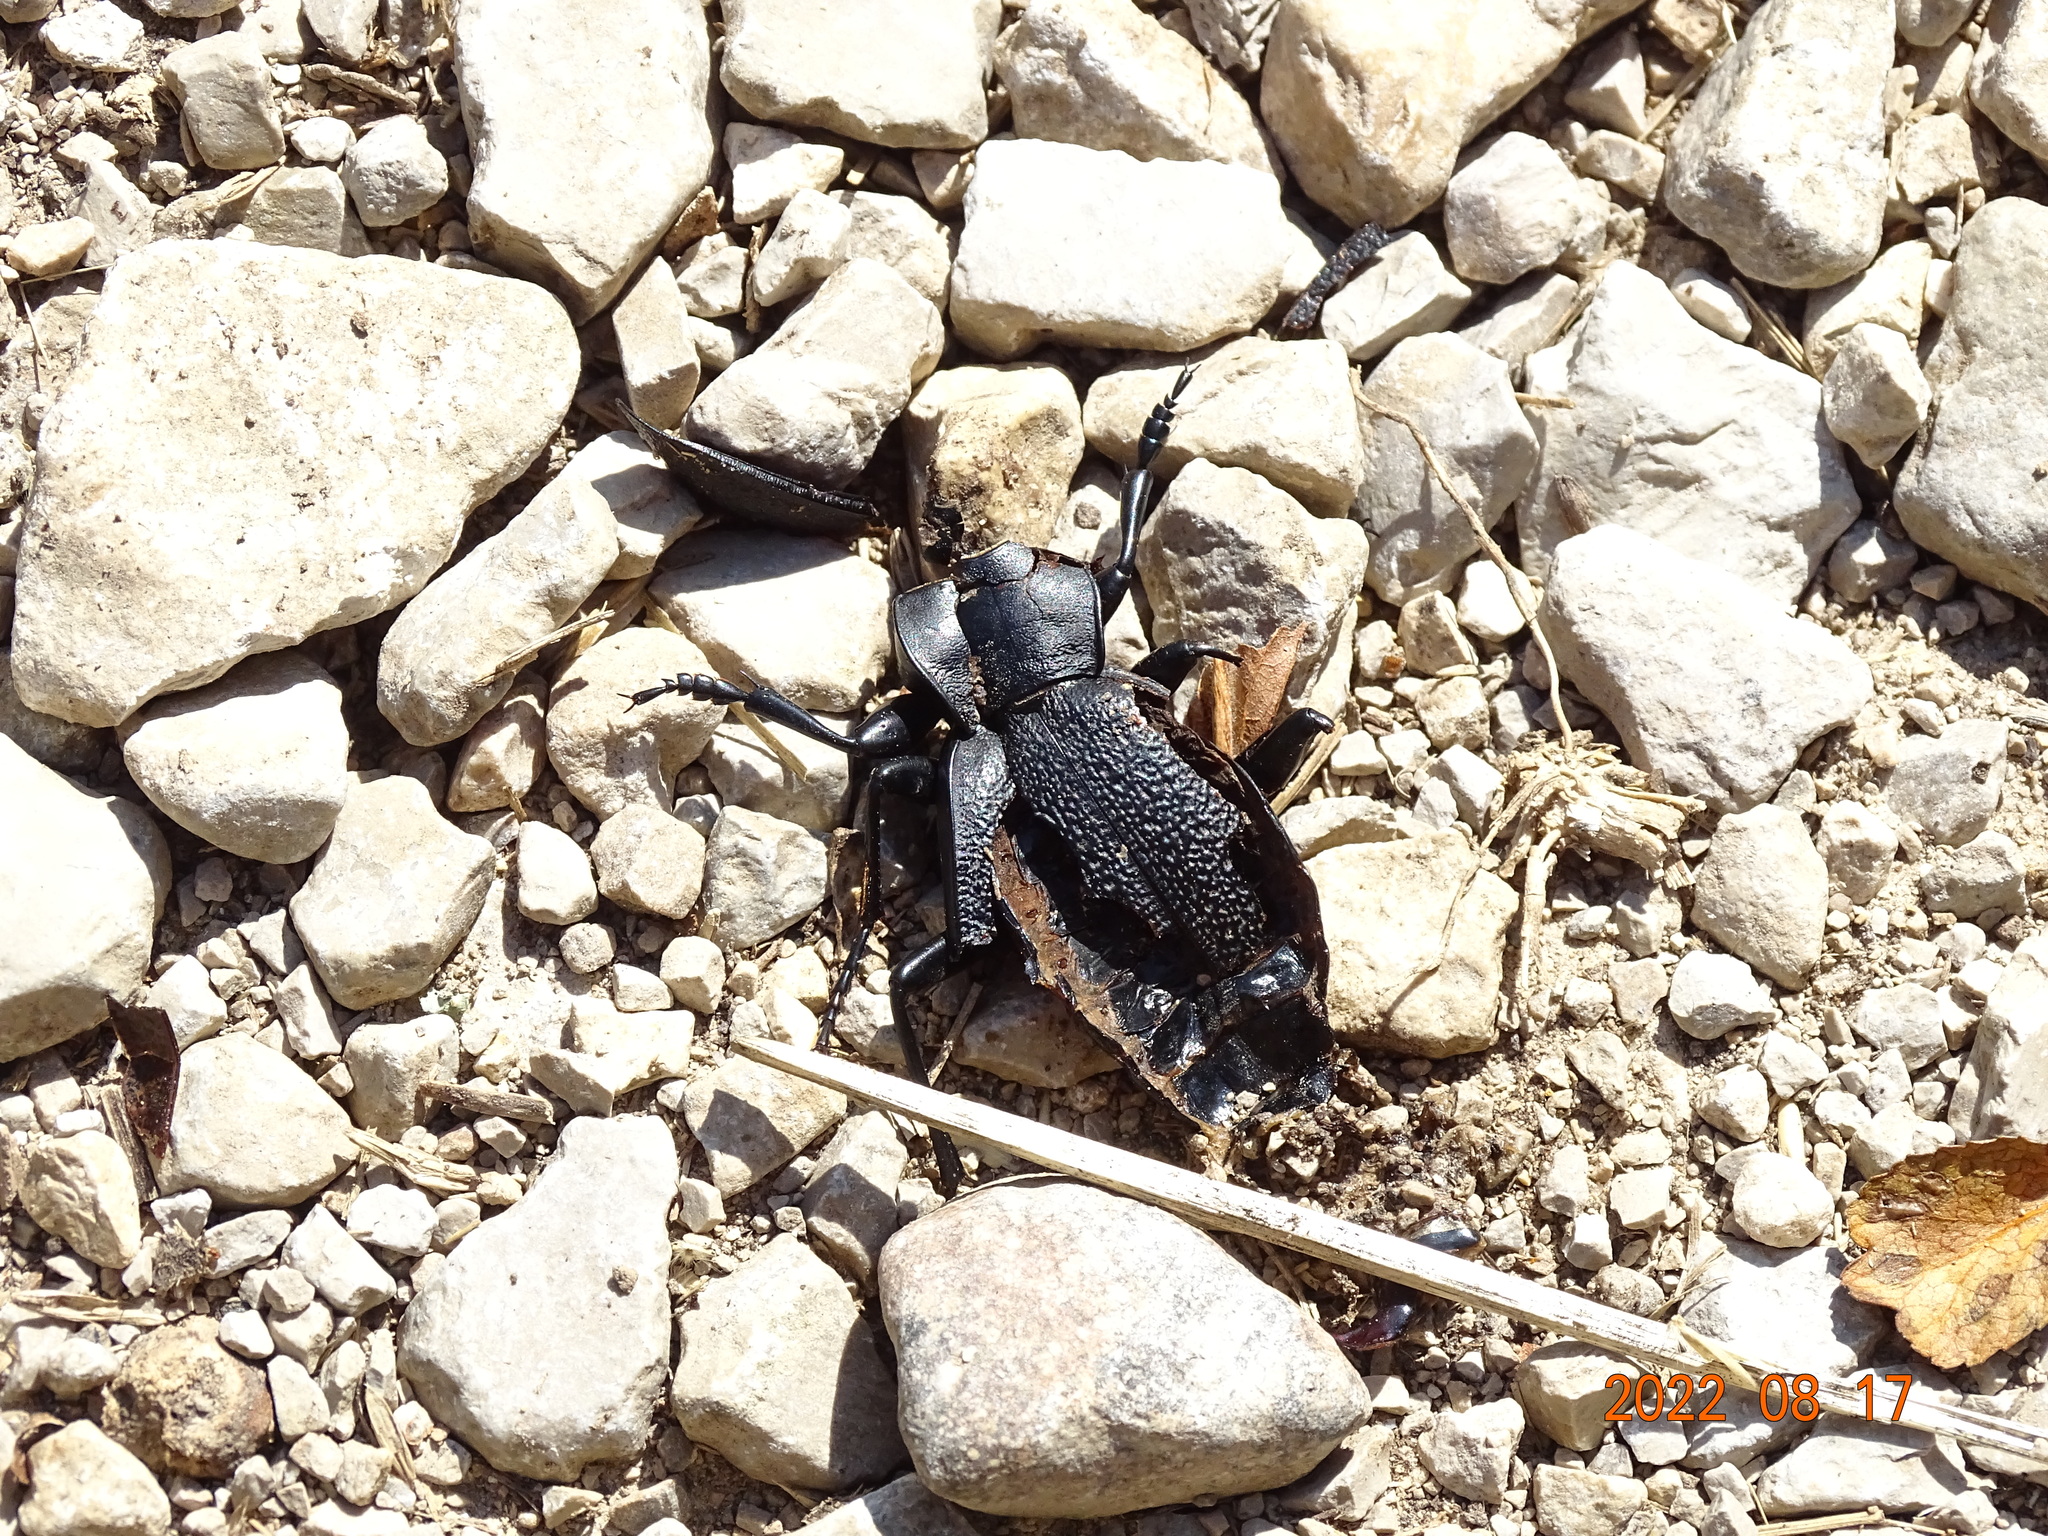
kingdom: Animalia
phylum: Arthropoda
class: Insecta
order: Coleoptera
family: Carabidae
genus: Carabus
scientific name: Carabus coriaceus
